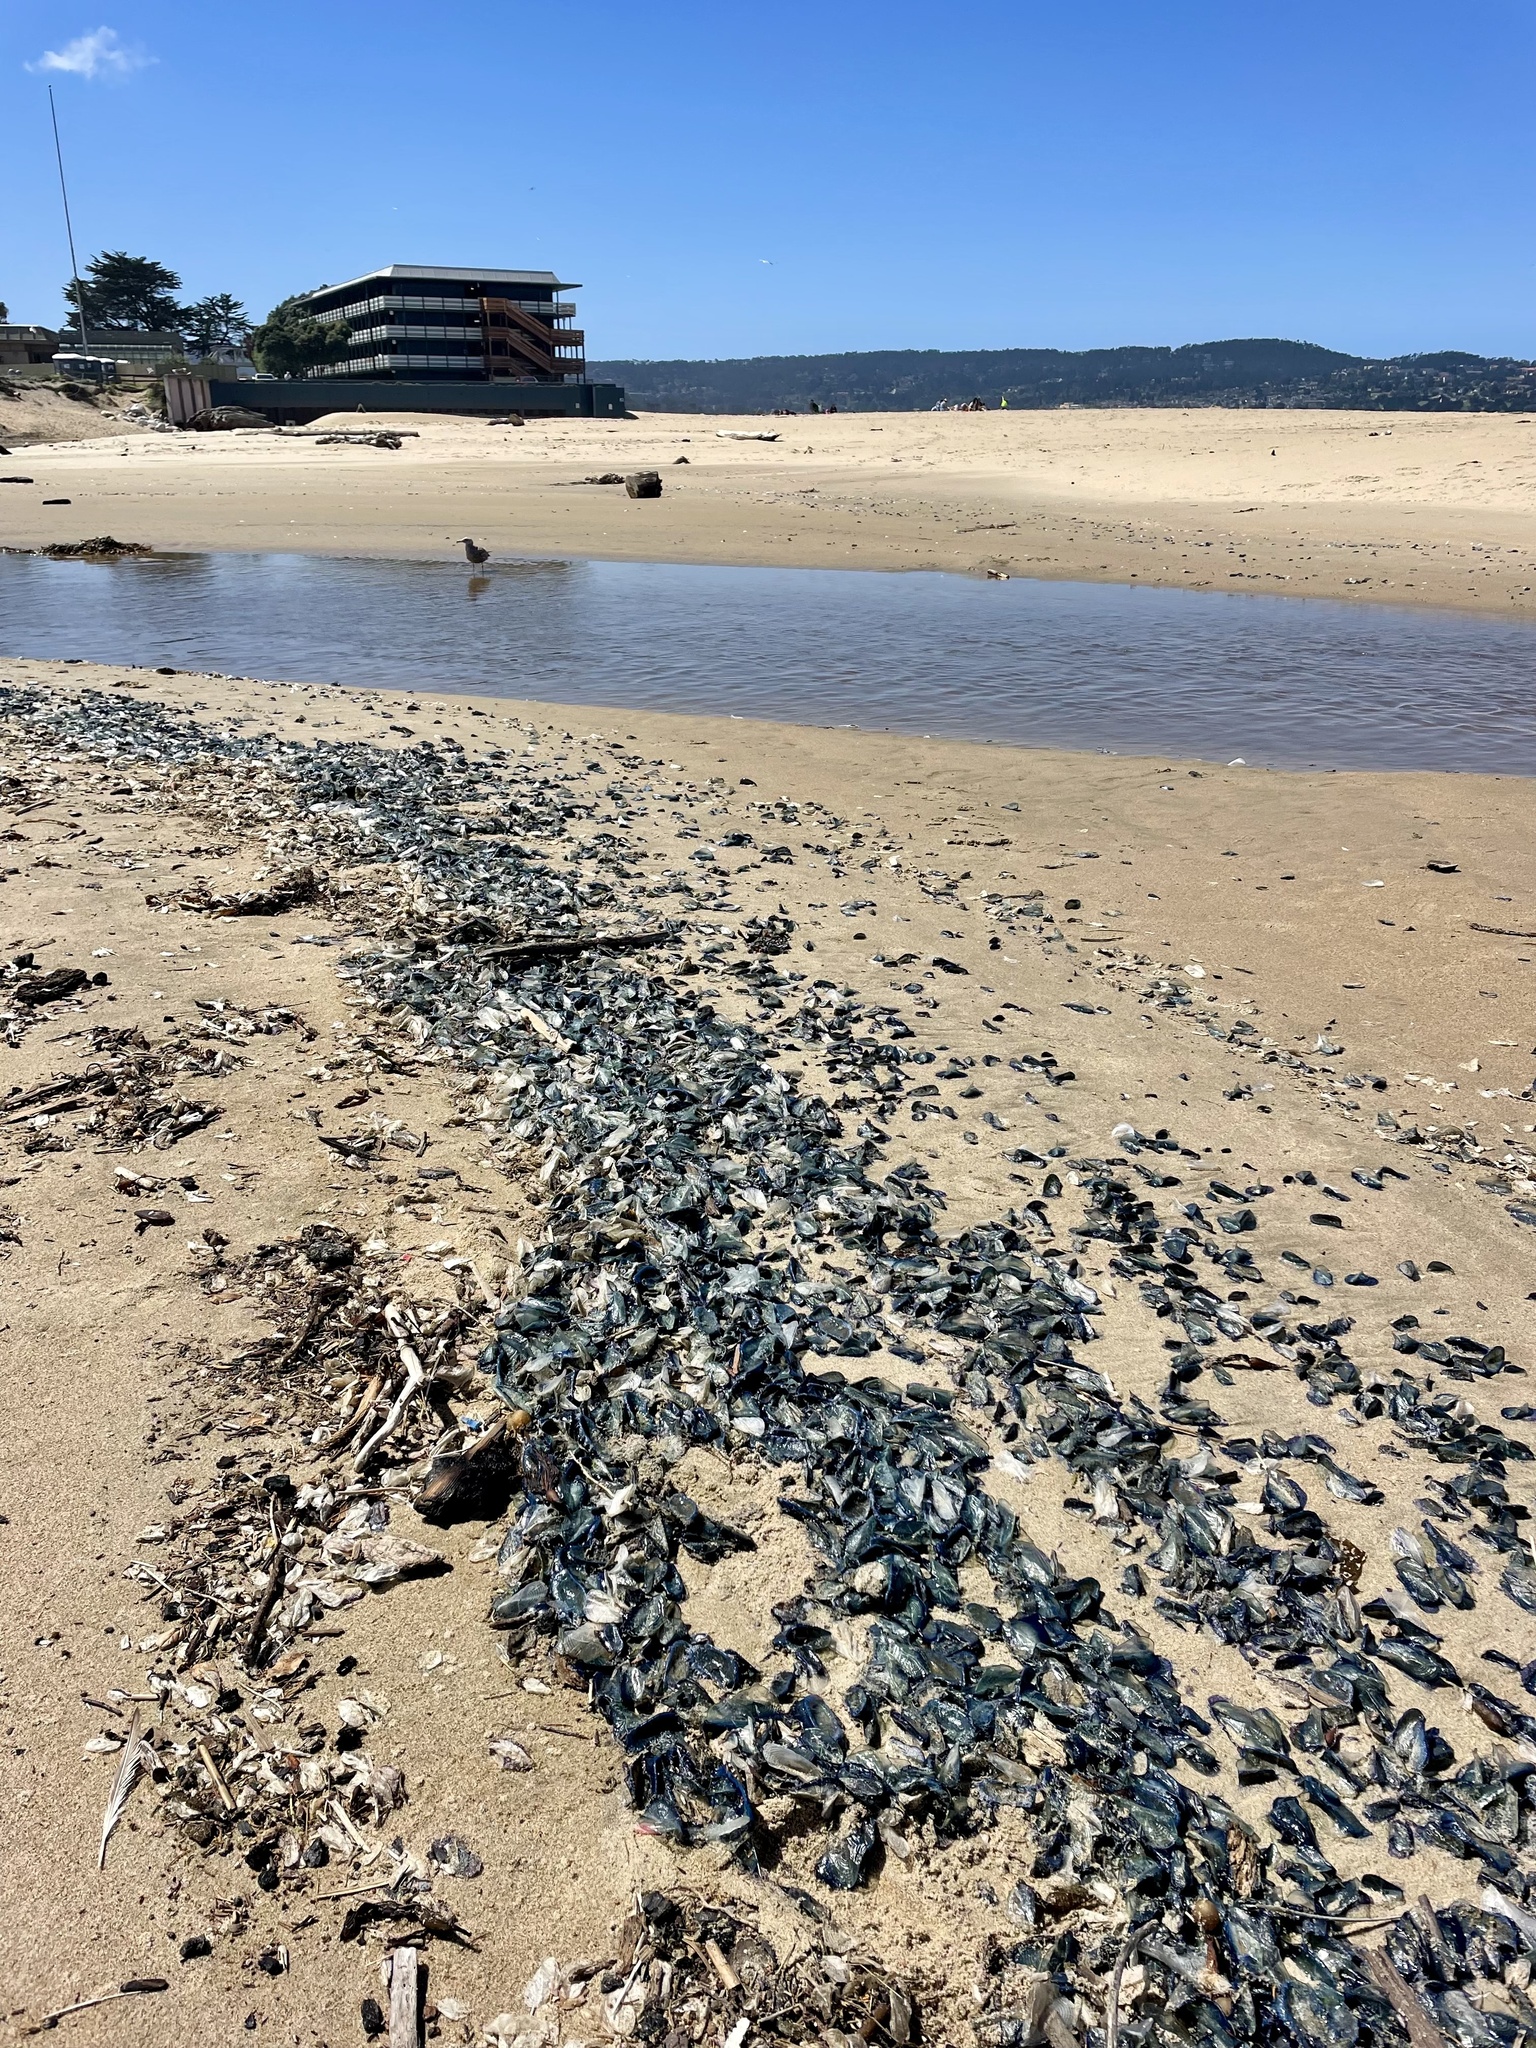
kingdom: Animalia
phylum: Cnidaria
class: Hydrozoa
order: Anthoathecata
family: Porpitidae
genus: Velella
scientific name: Velella velella
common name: By-the-wind-sailor
